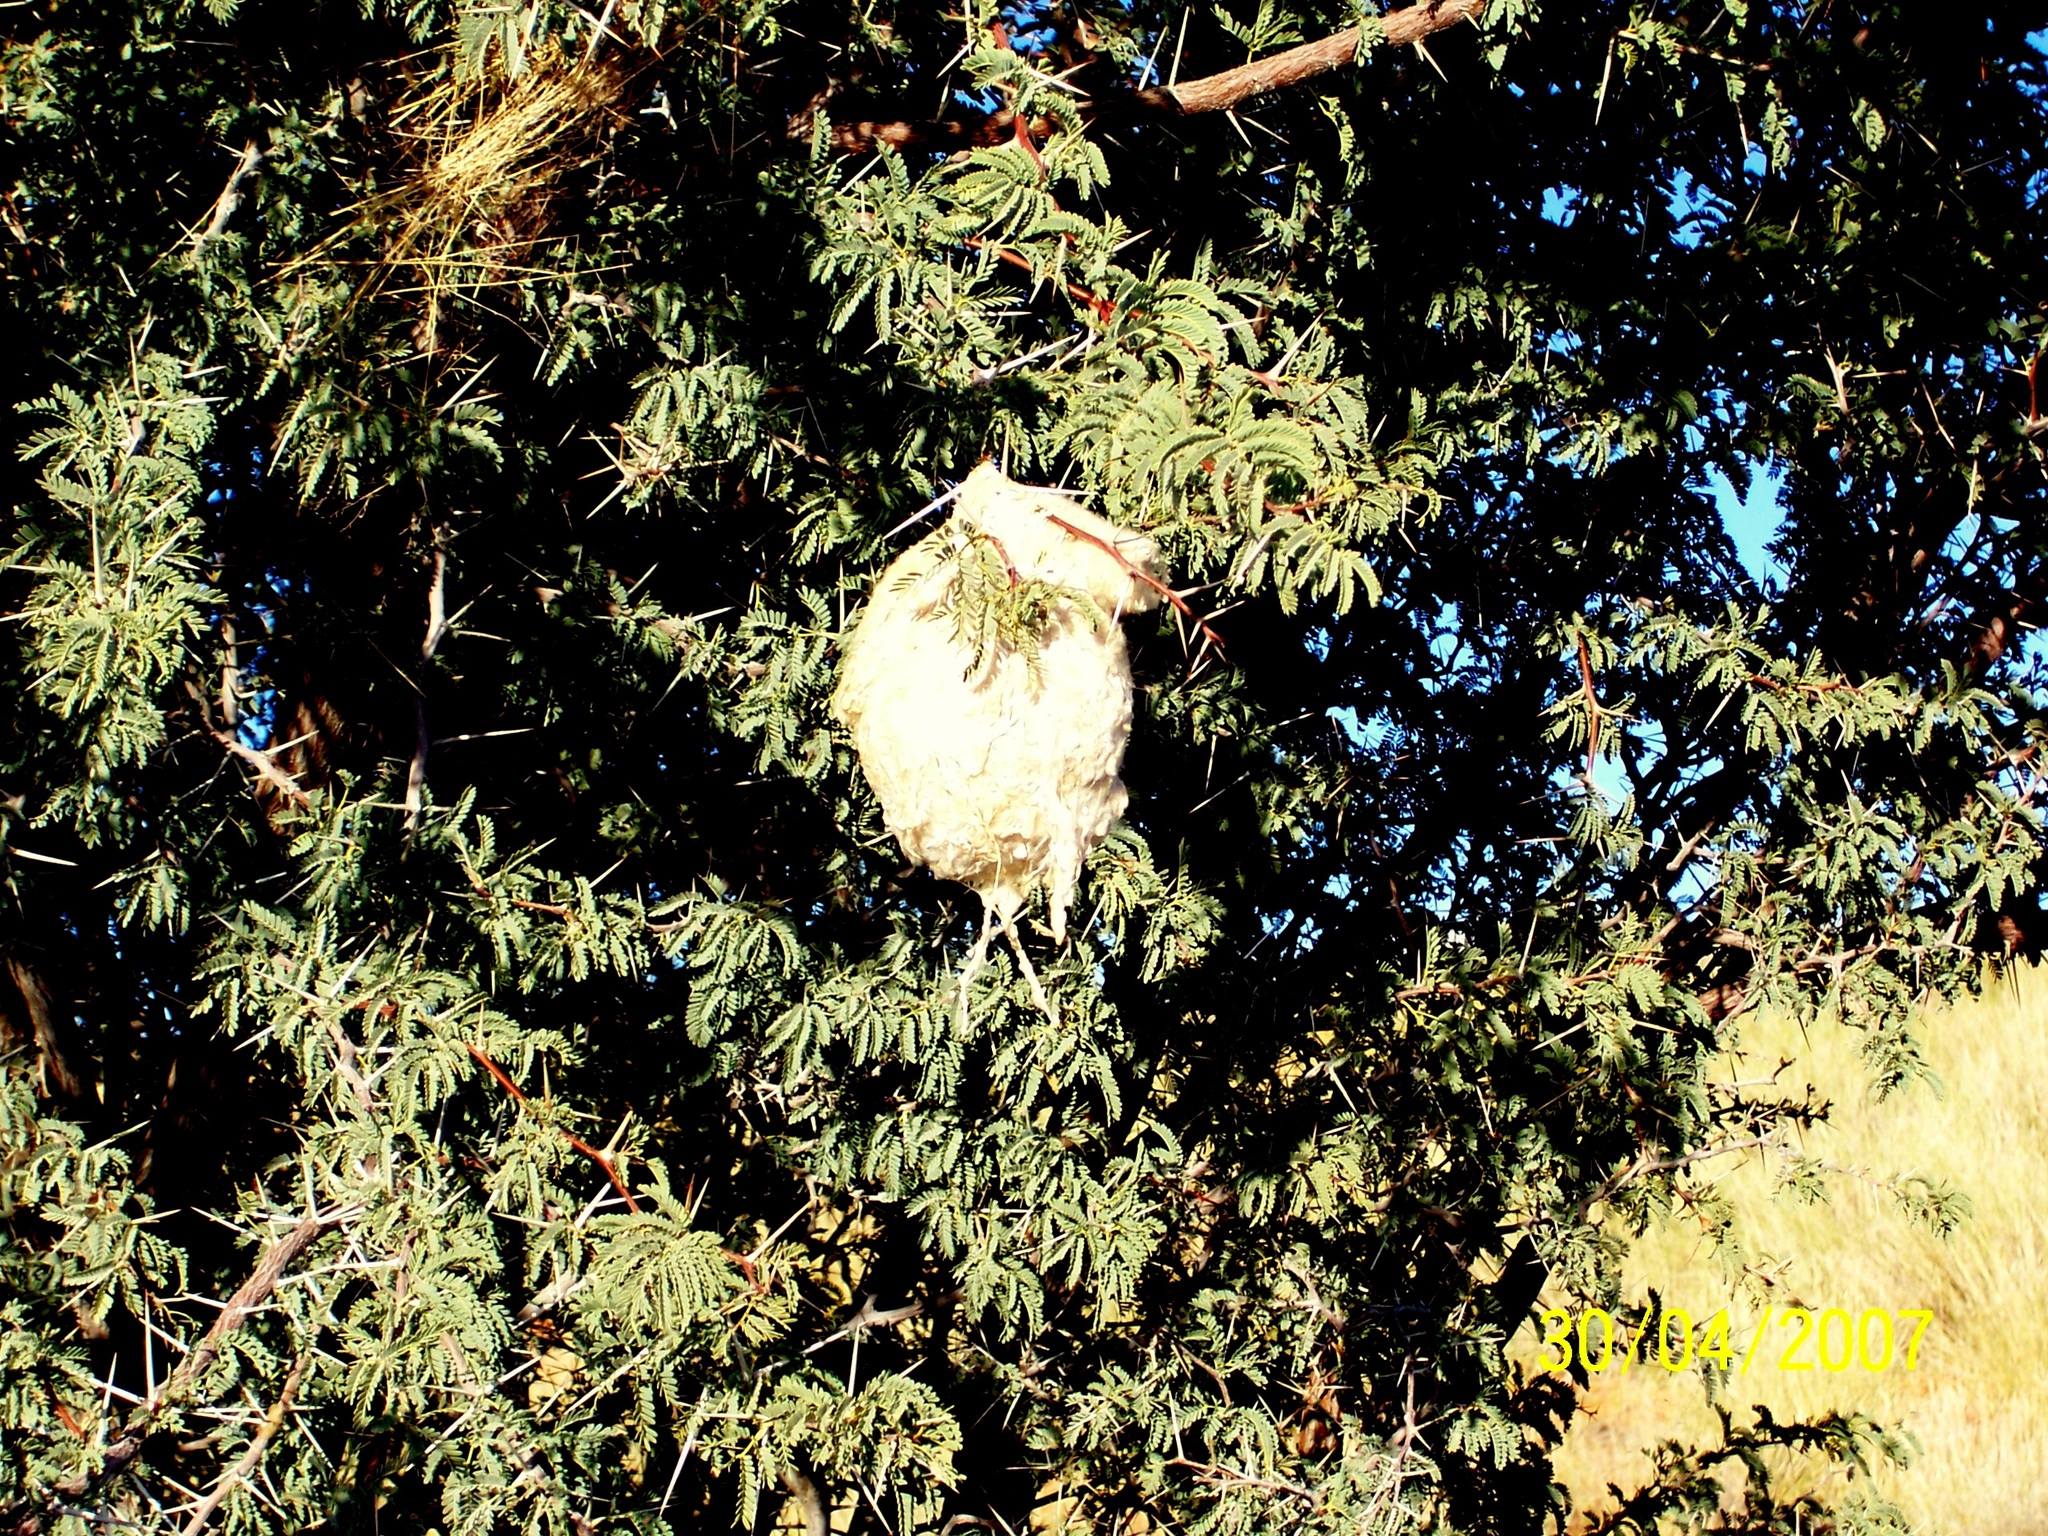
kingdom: Animalia
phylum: Chordata
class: Aves
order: Passeriformes
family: Remizidae
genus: Anthoscopus
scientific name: Anthoscopus minutus
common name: Cape penduline tit
